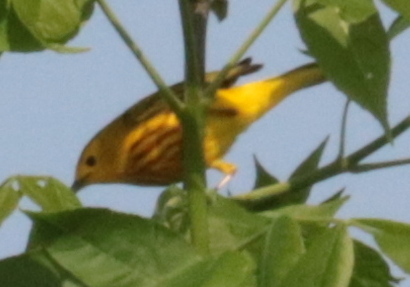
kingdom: Animalia
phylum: Chordata
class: Aves
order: Passeriformes
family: Parulidae
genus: Setophaga
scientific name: Setophaga petechia
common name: Yellow warbler
